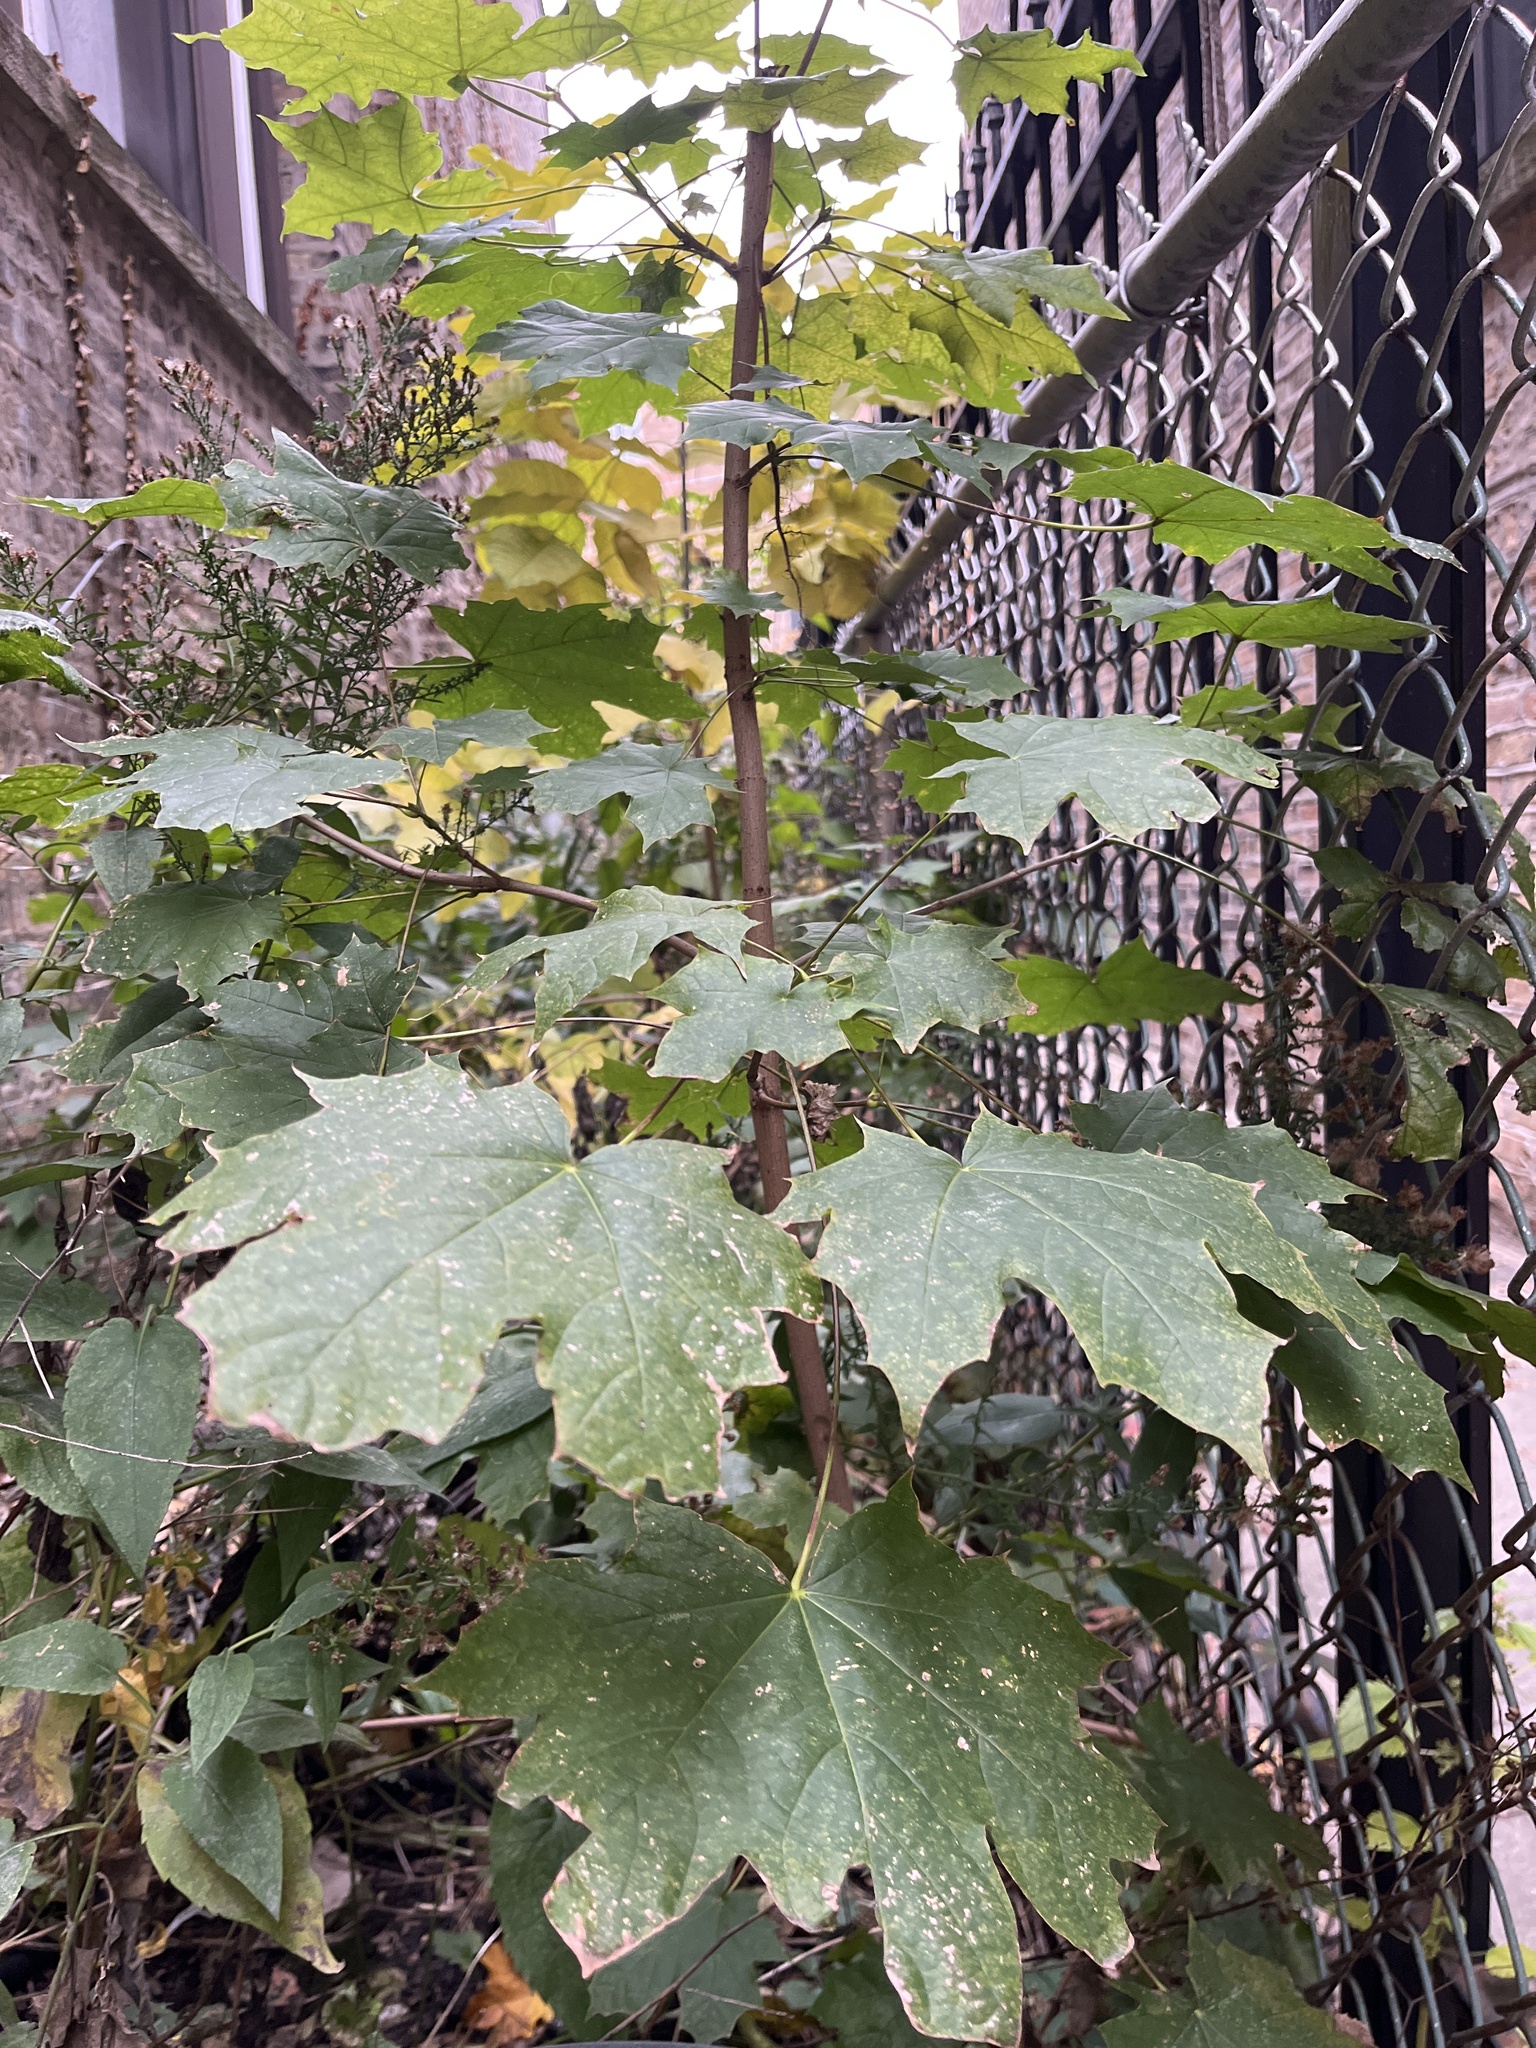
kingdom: Plantae
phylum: Tracheophyta
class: Magnoliopsida
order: Sapindales
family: Sapindaceae
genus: Acer
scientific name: Acer platanoides
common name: Norway maple
